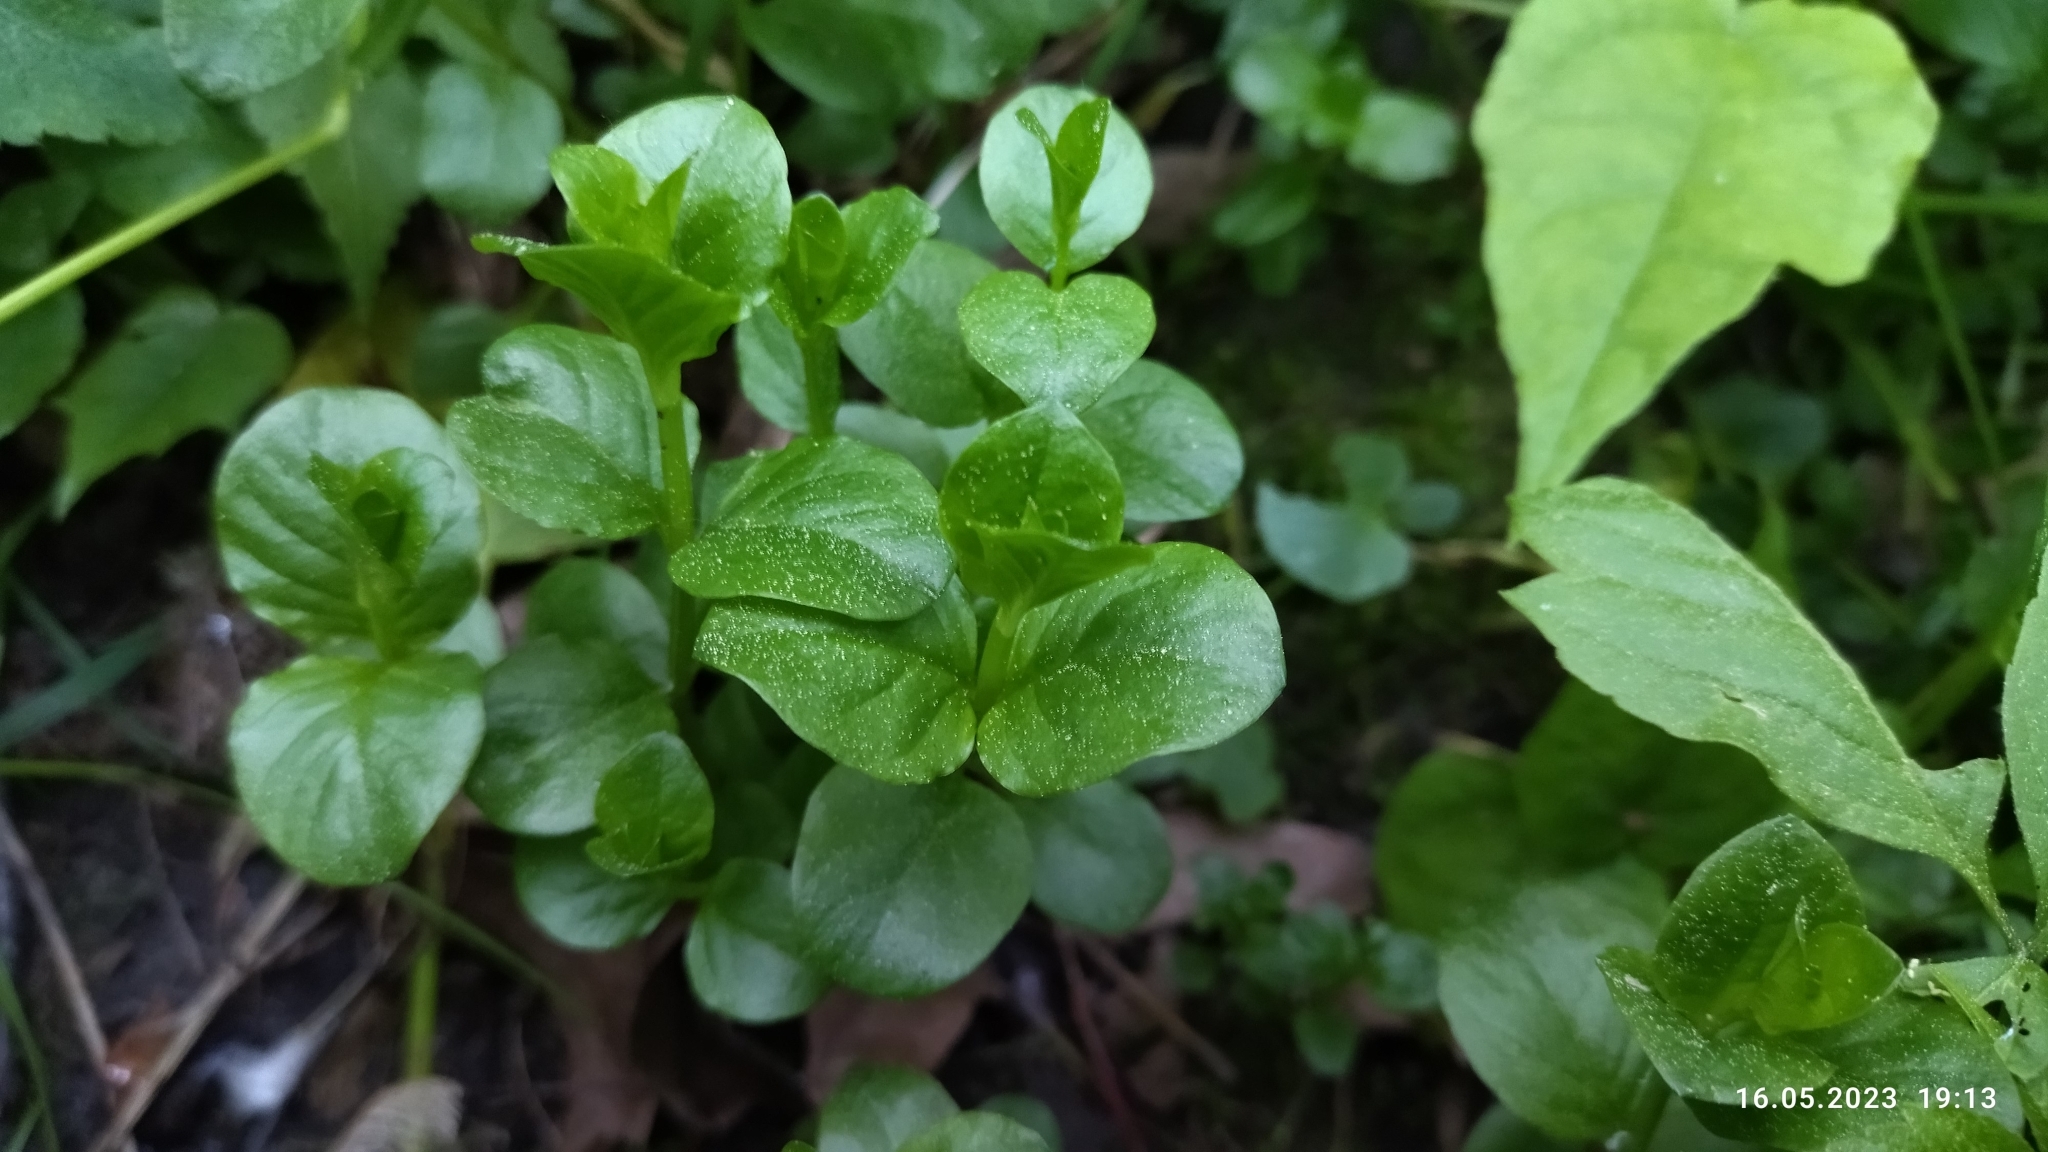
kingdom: Plantae
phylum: Tracheophyta
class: Magnoliopsida
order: Ericales
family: Primulaceae
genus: Lysimachia
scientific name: Lysimachia nummularia
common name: Moneywort
